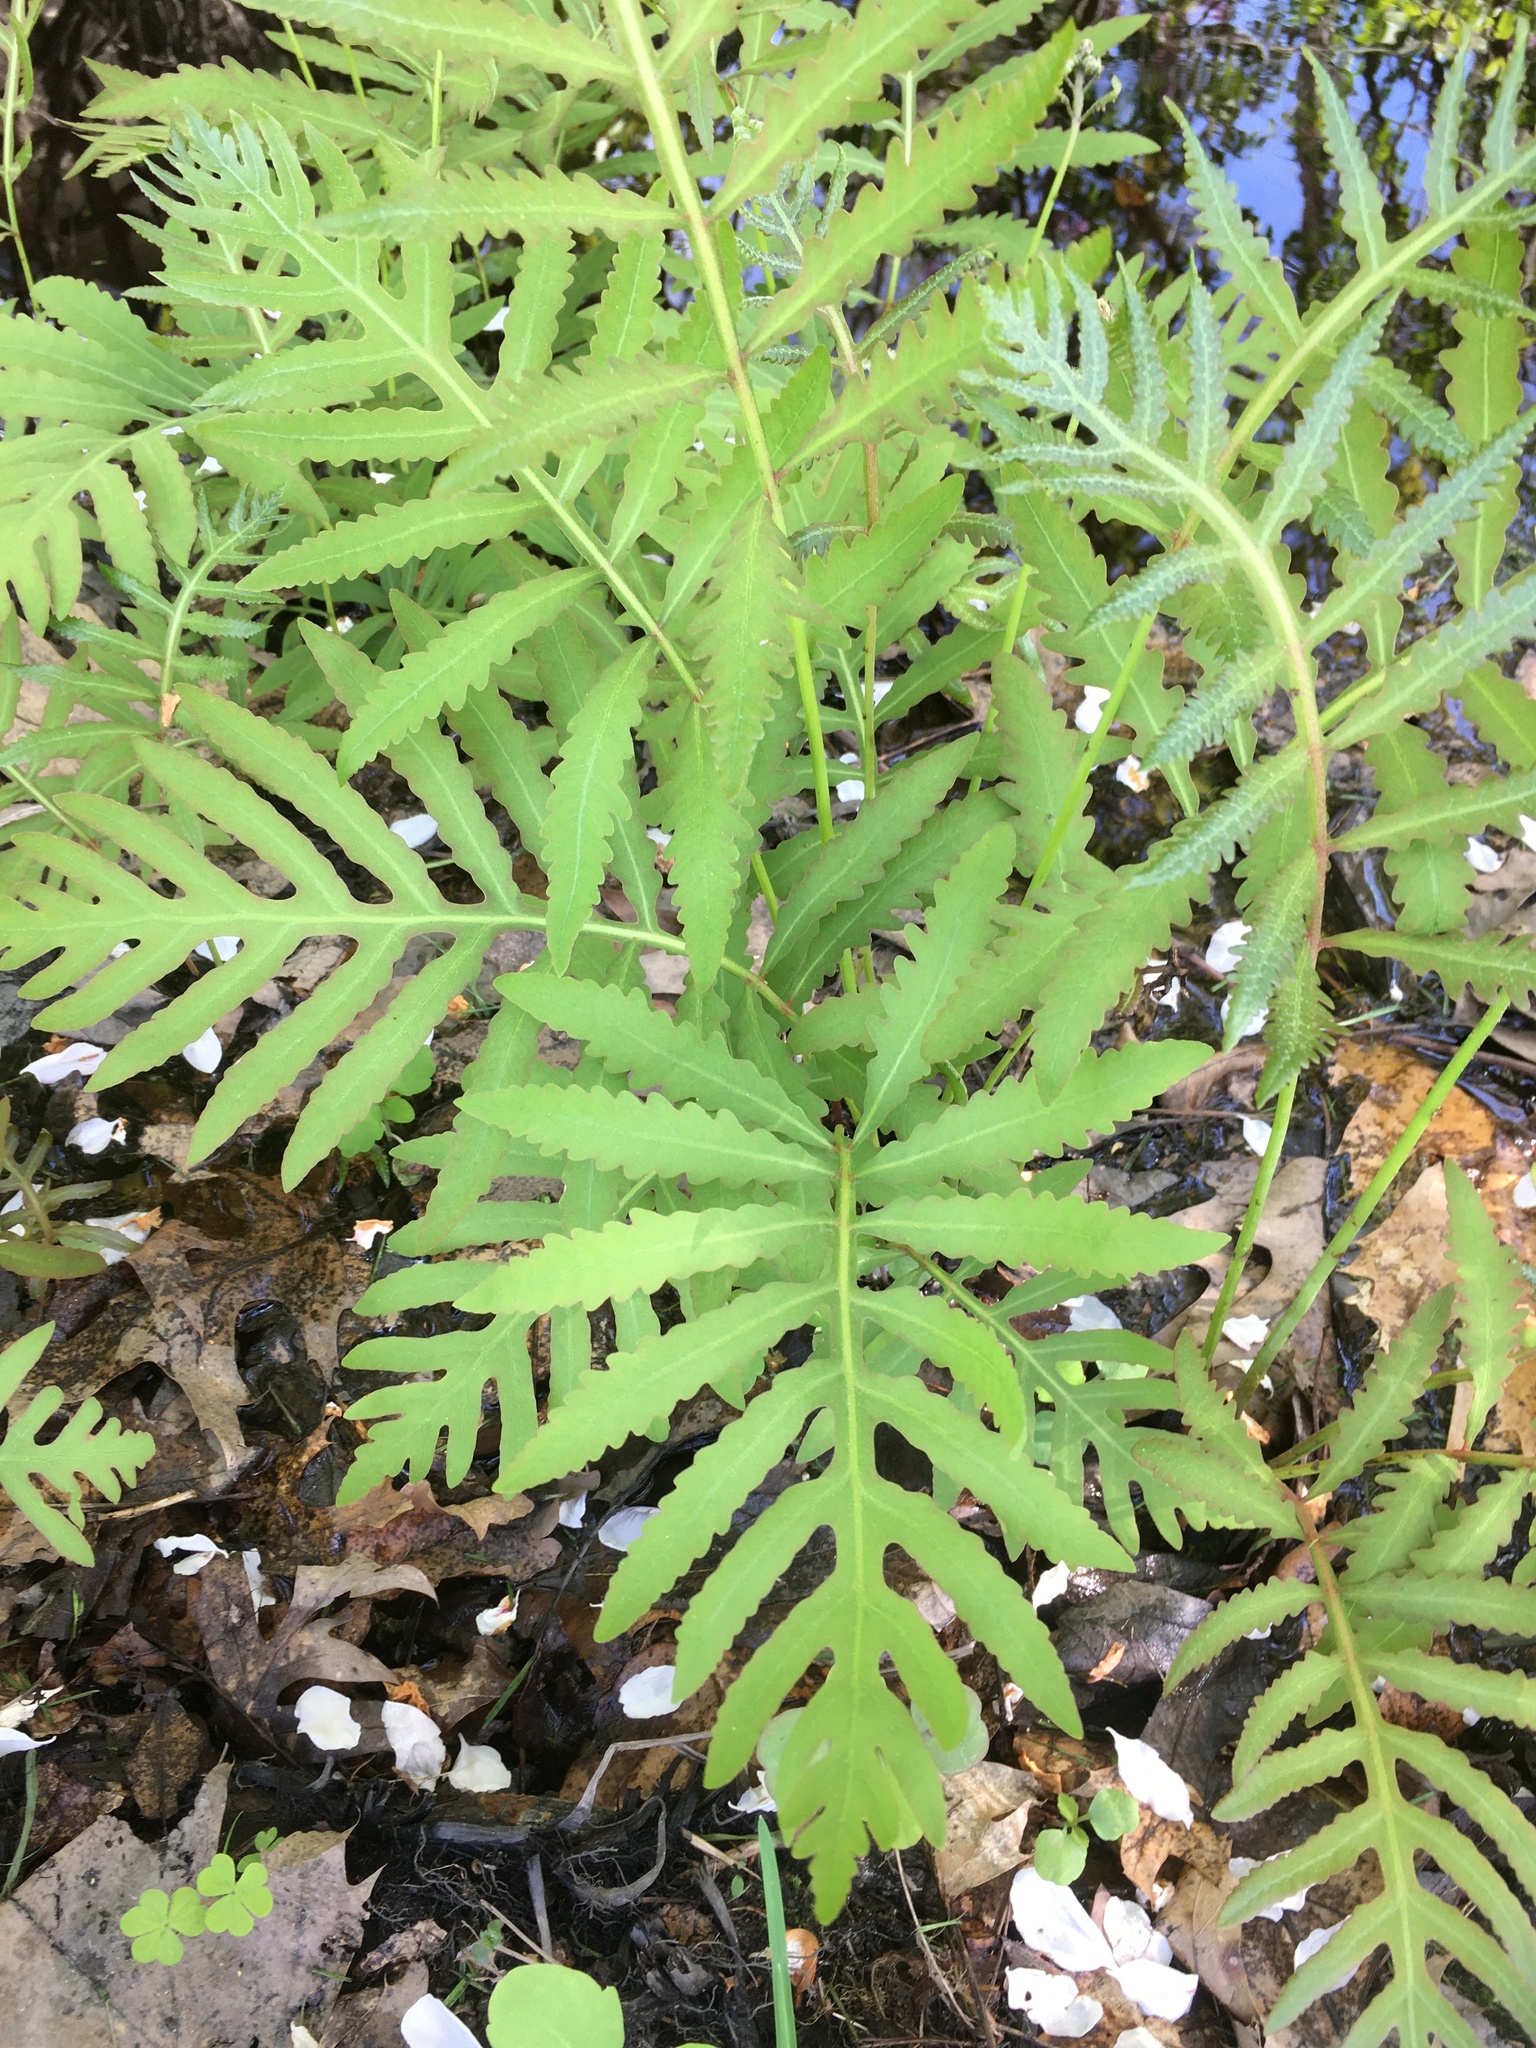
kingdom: Plantae
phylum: Tracheophyta
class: Polypodiopsida
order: Polypodiales
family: Onocleaceae
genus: Onoclea
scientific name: Onoclea sensibilis
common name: Sensitive fern
